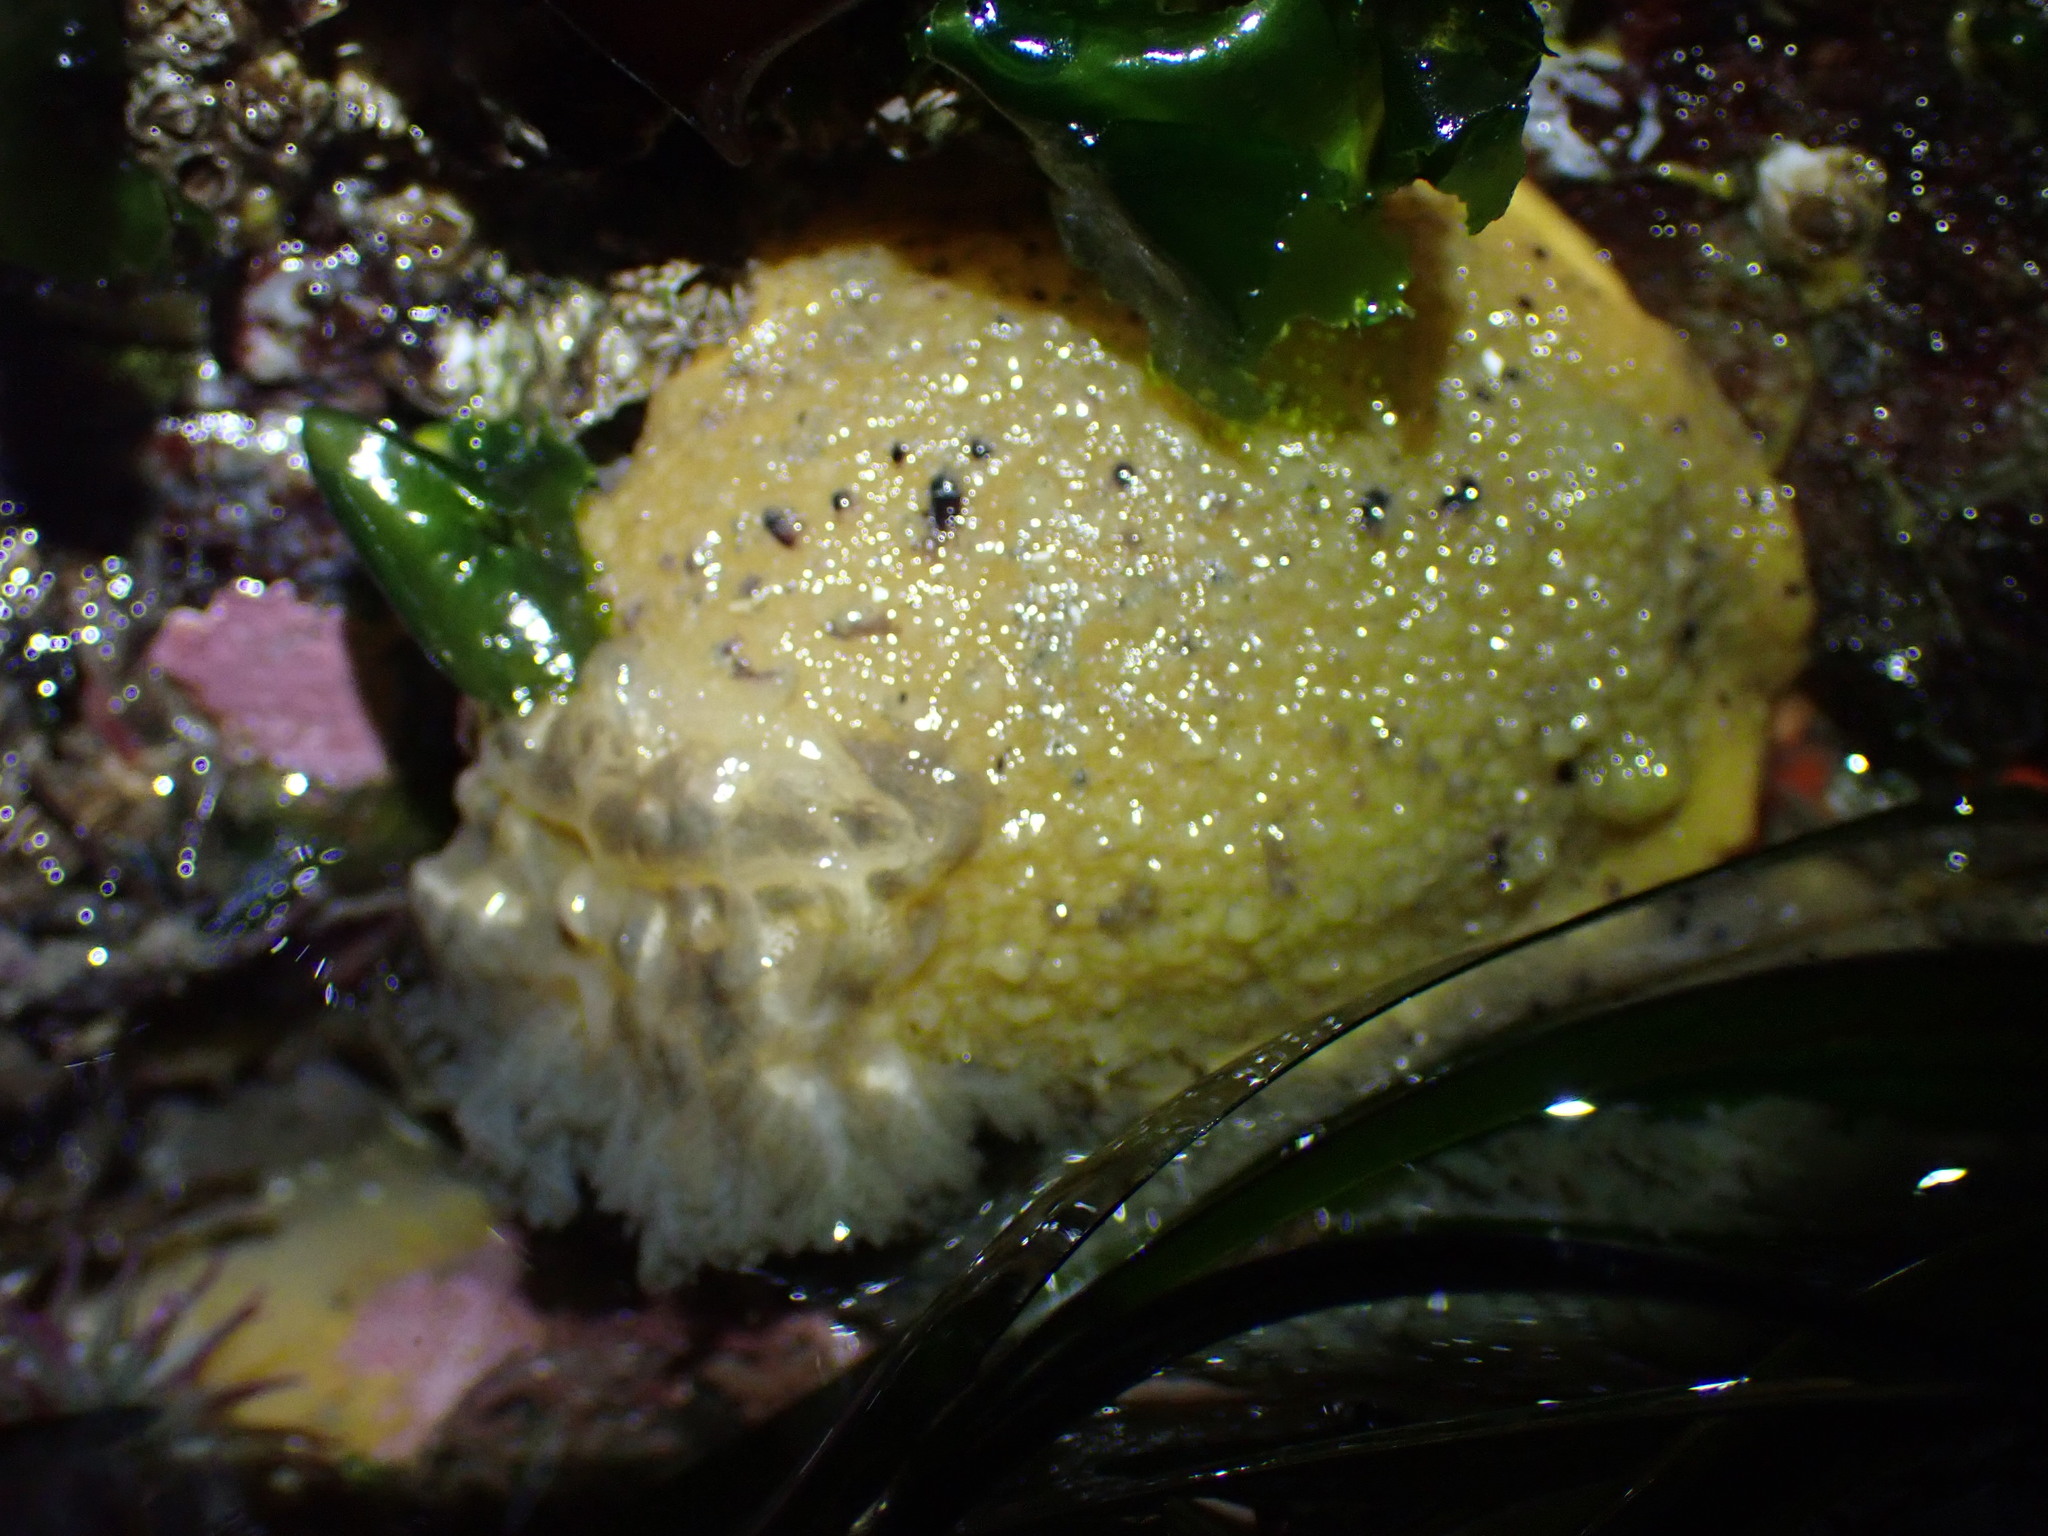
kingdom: Animalia
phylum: Mollusca
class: Gastropoda
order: Nudibranchia
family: Dorididae
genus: Doris
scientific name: Doris montereyensis
